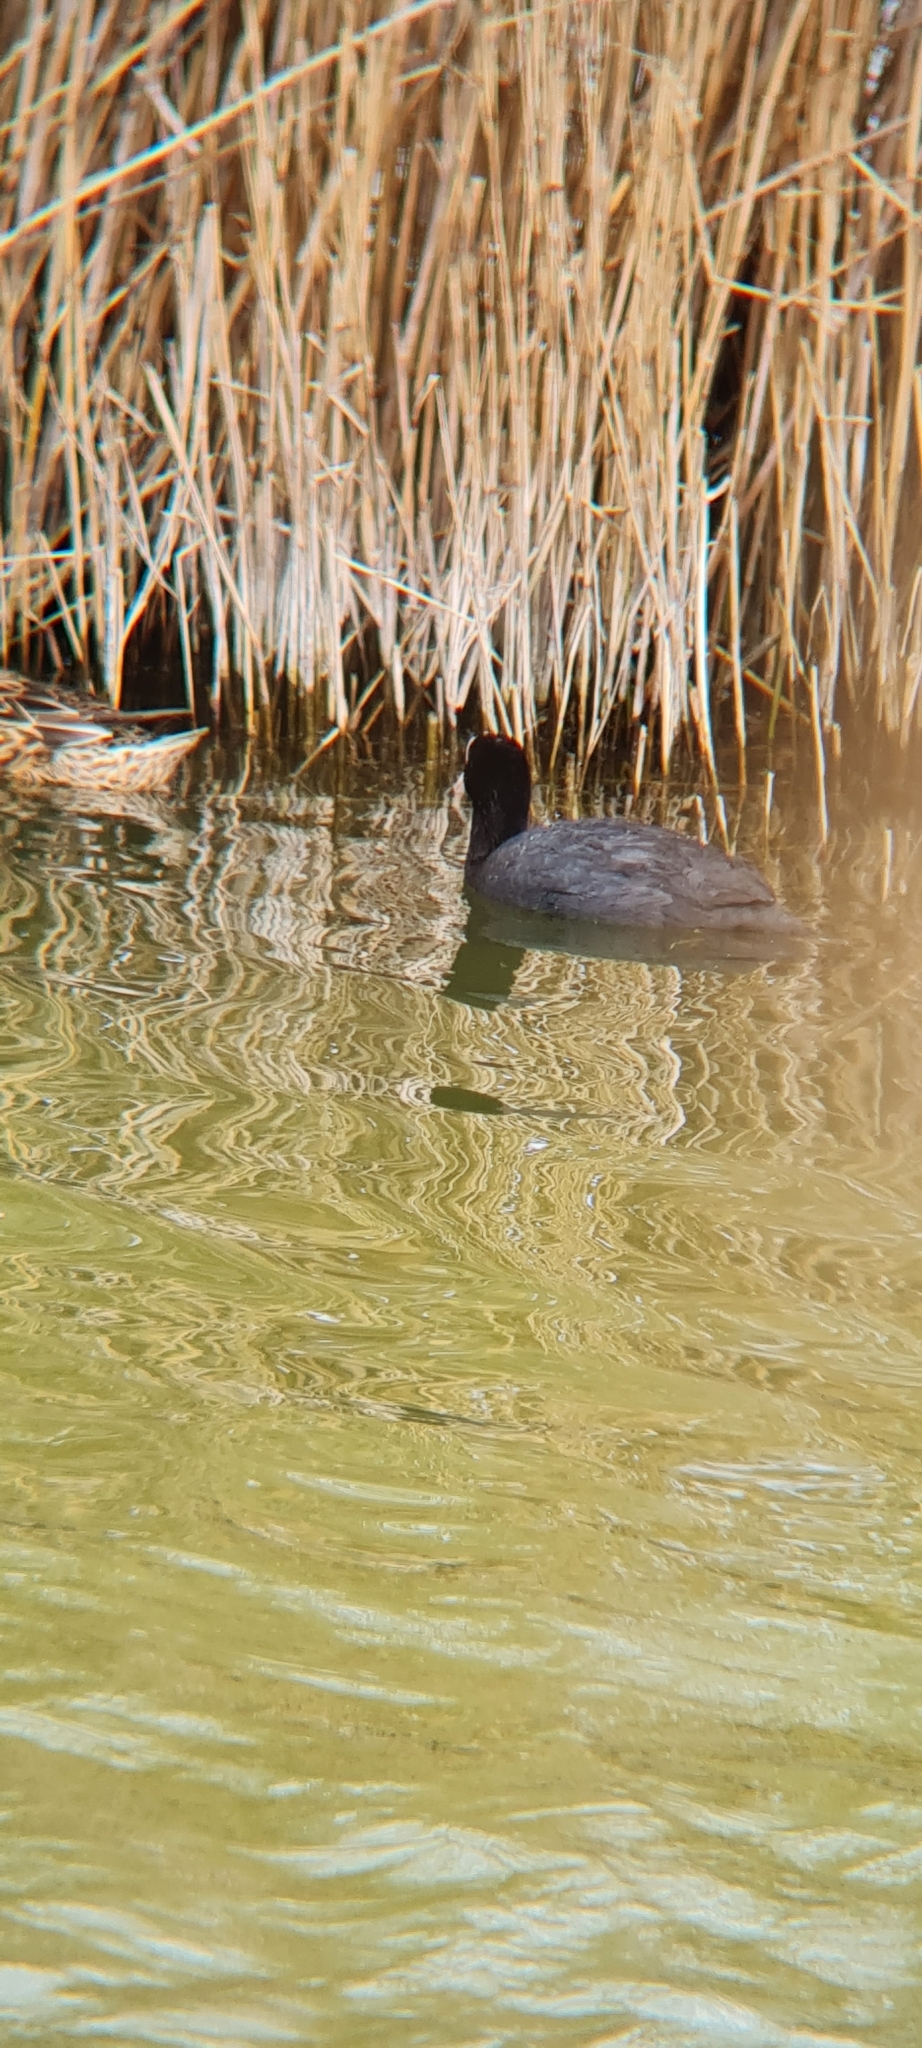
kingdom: Animalia
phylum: Chordata
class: Aves
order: Gruiformes
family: Rallidae
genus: Fulica
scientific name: Fulica atra
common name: Eurasian coot
